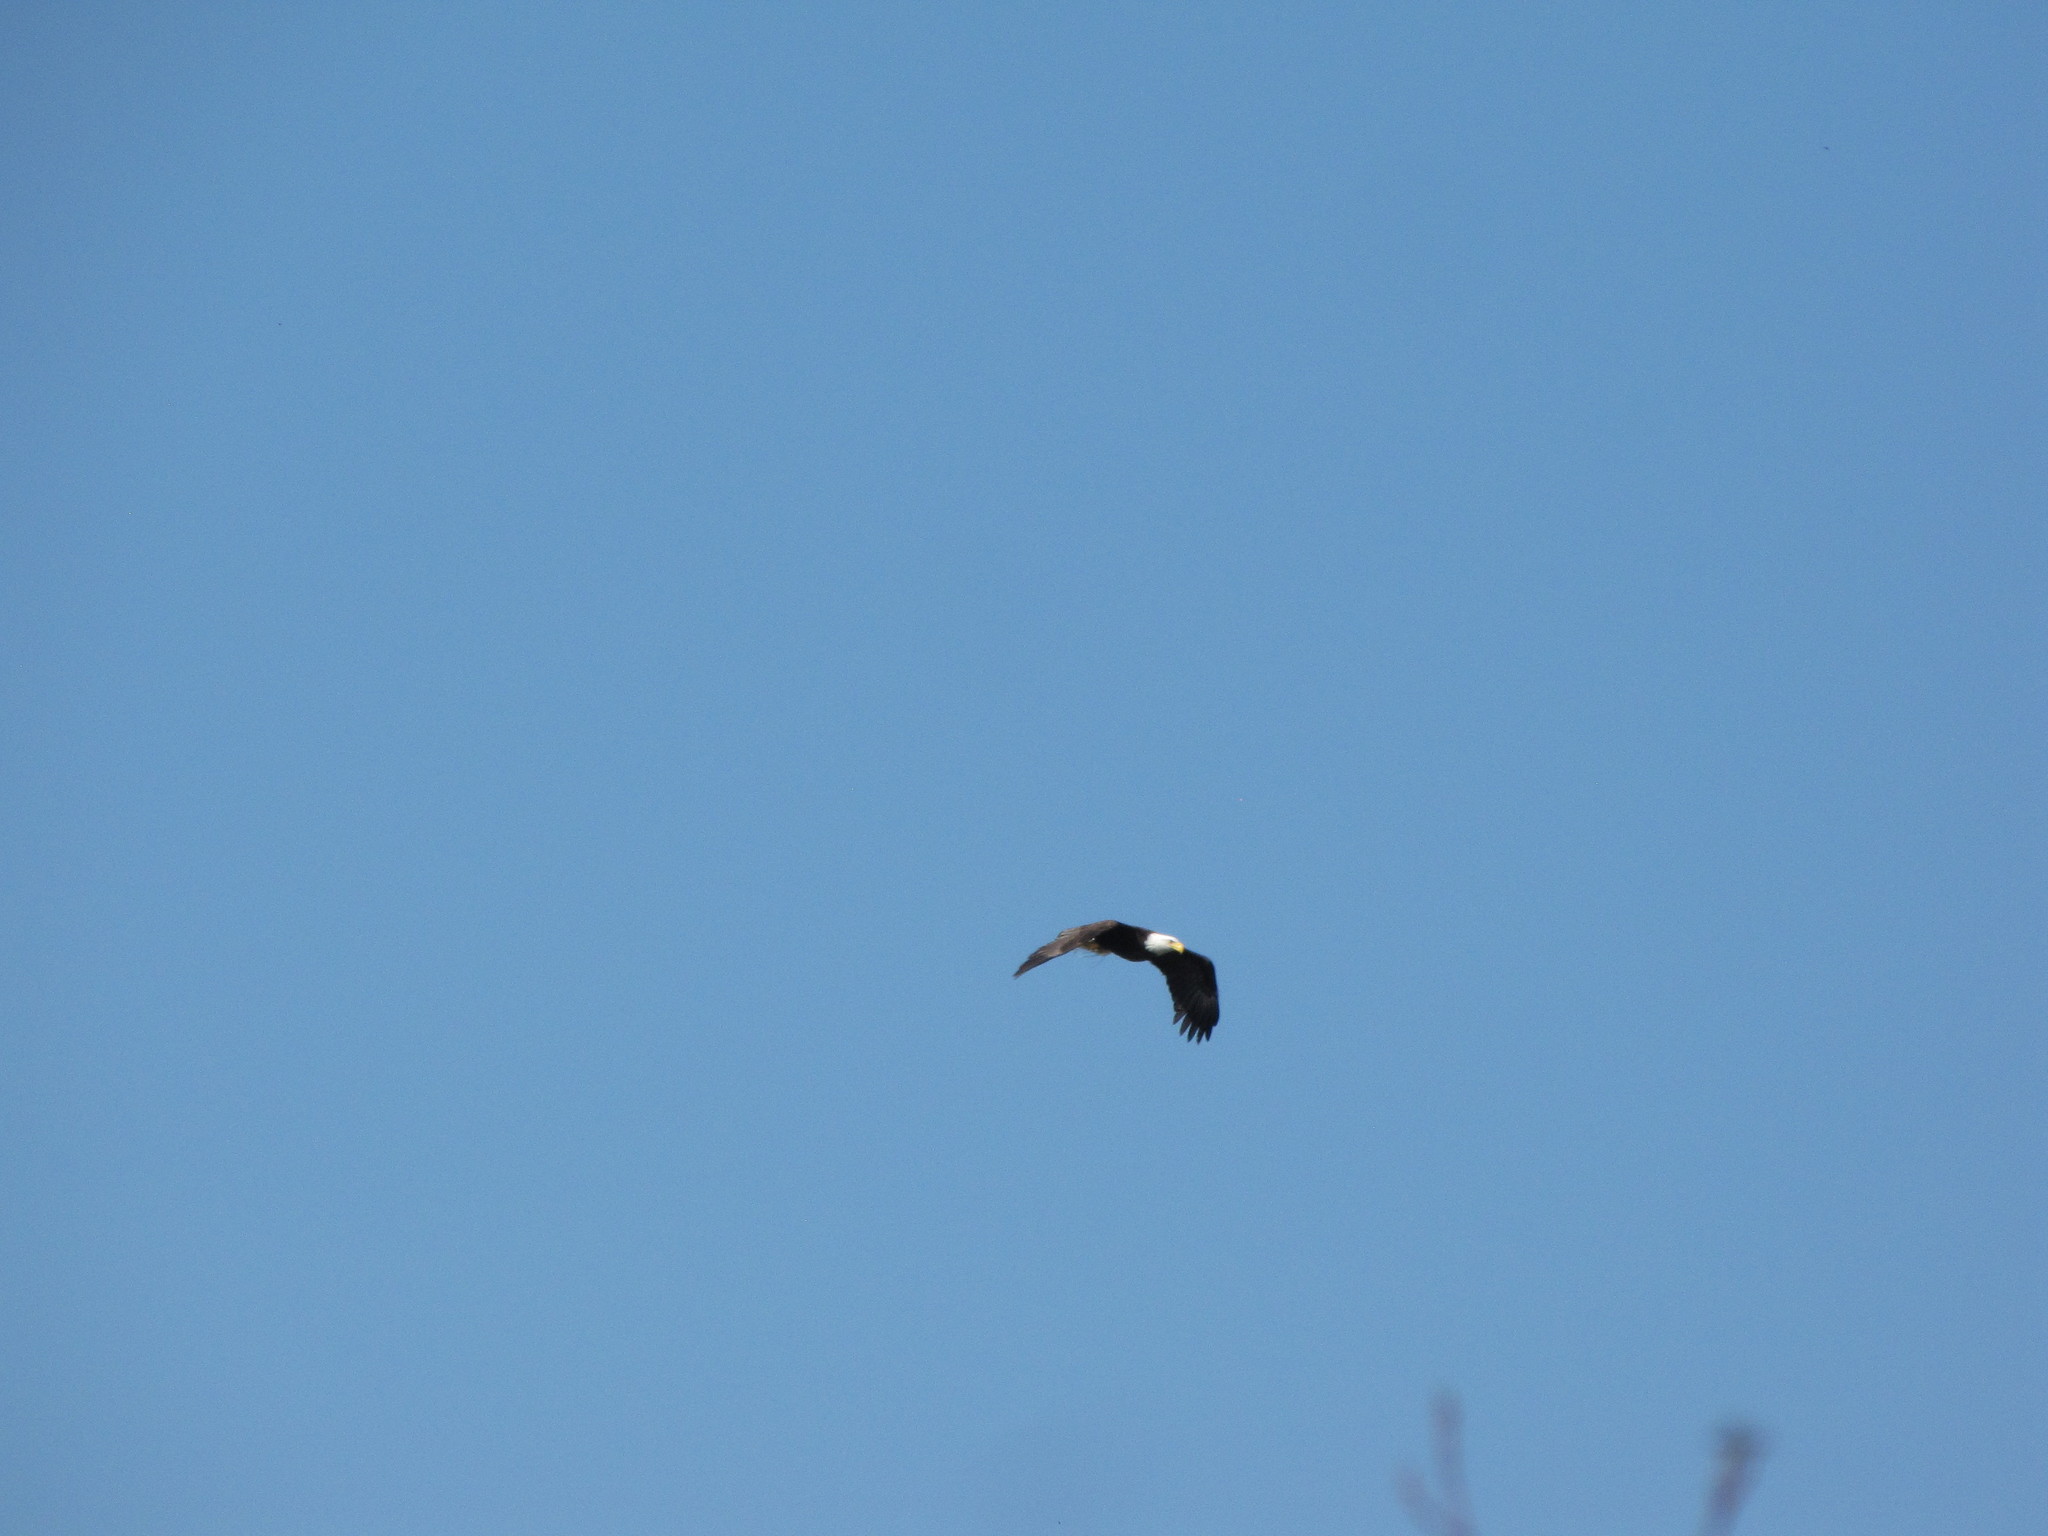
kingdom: Animalia
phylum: Chordata
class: Aves
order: Accipitriformes
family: Accipitridae
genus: Haliaeetus
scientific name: Haliaeetus leucocephalus
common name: Bald eagle
